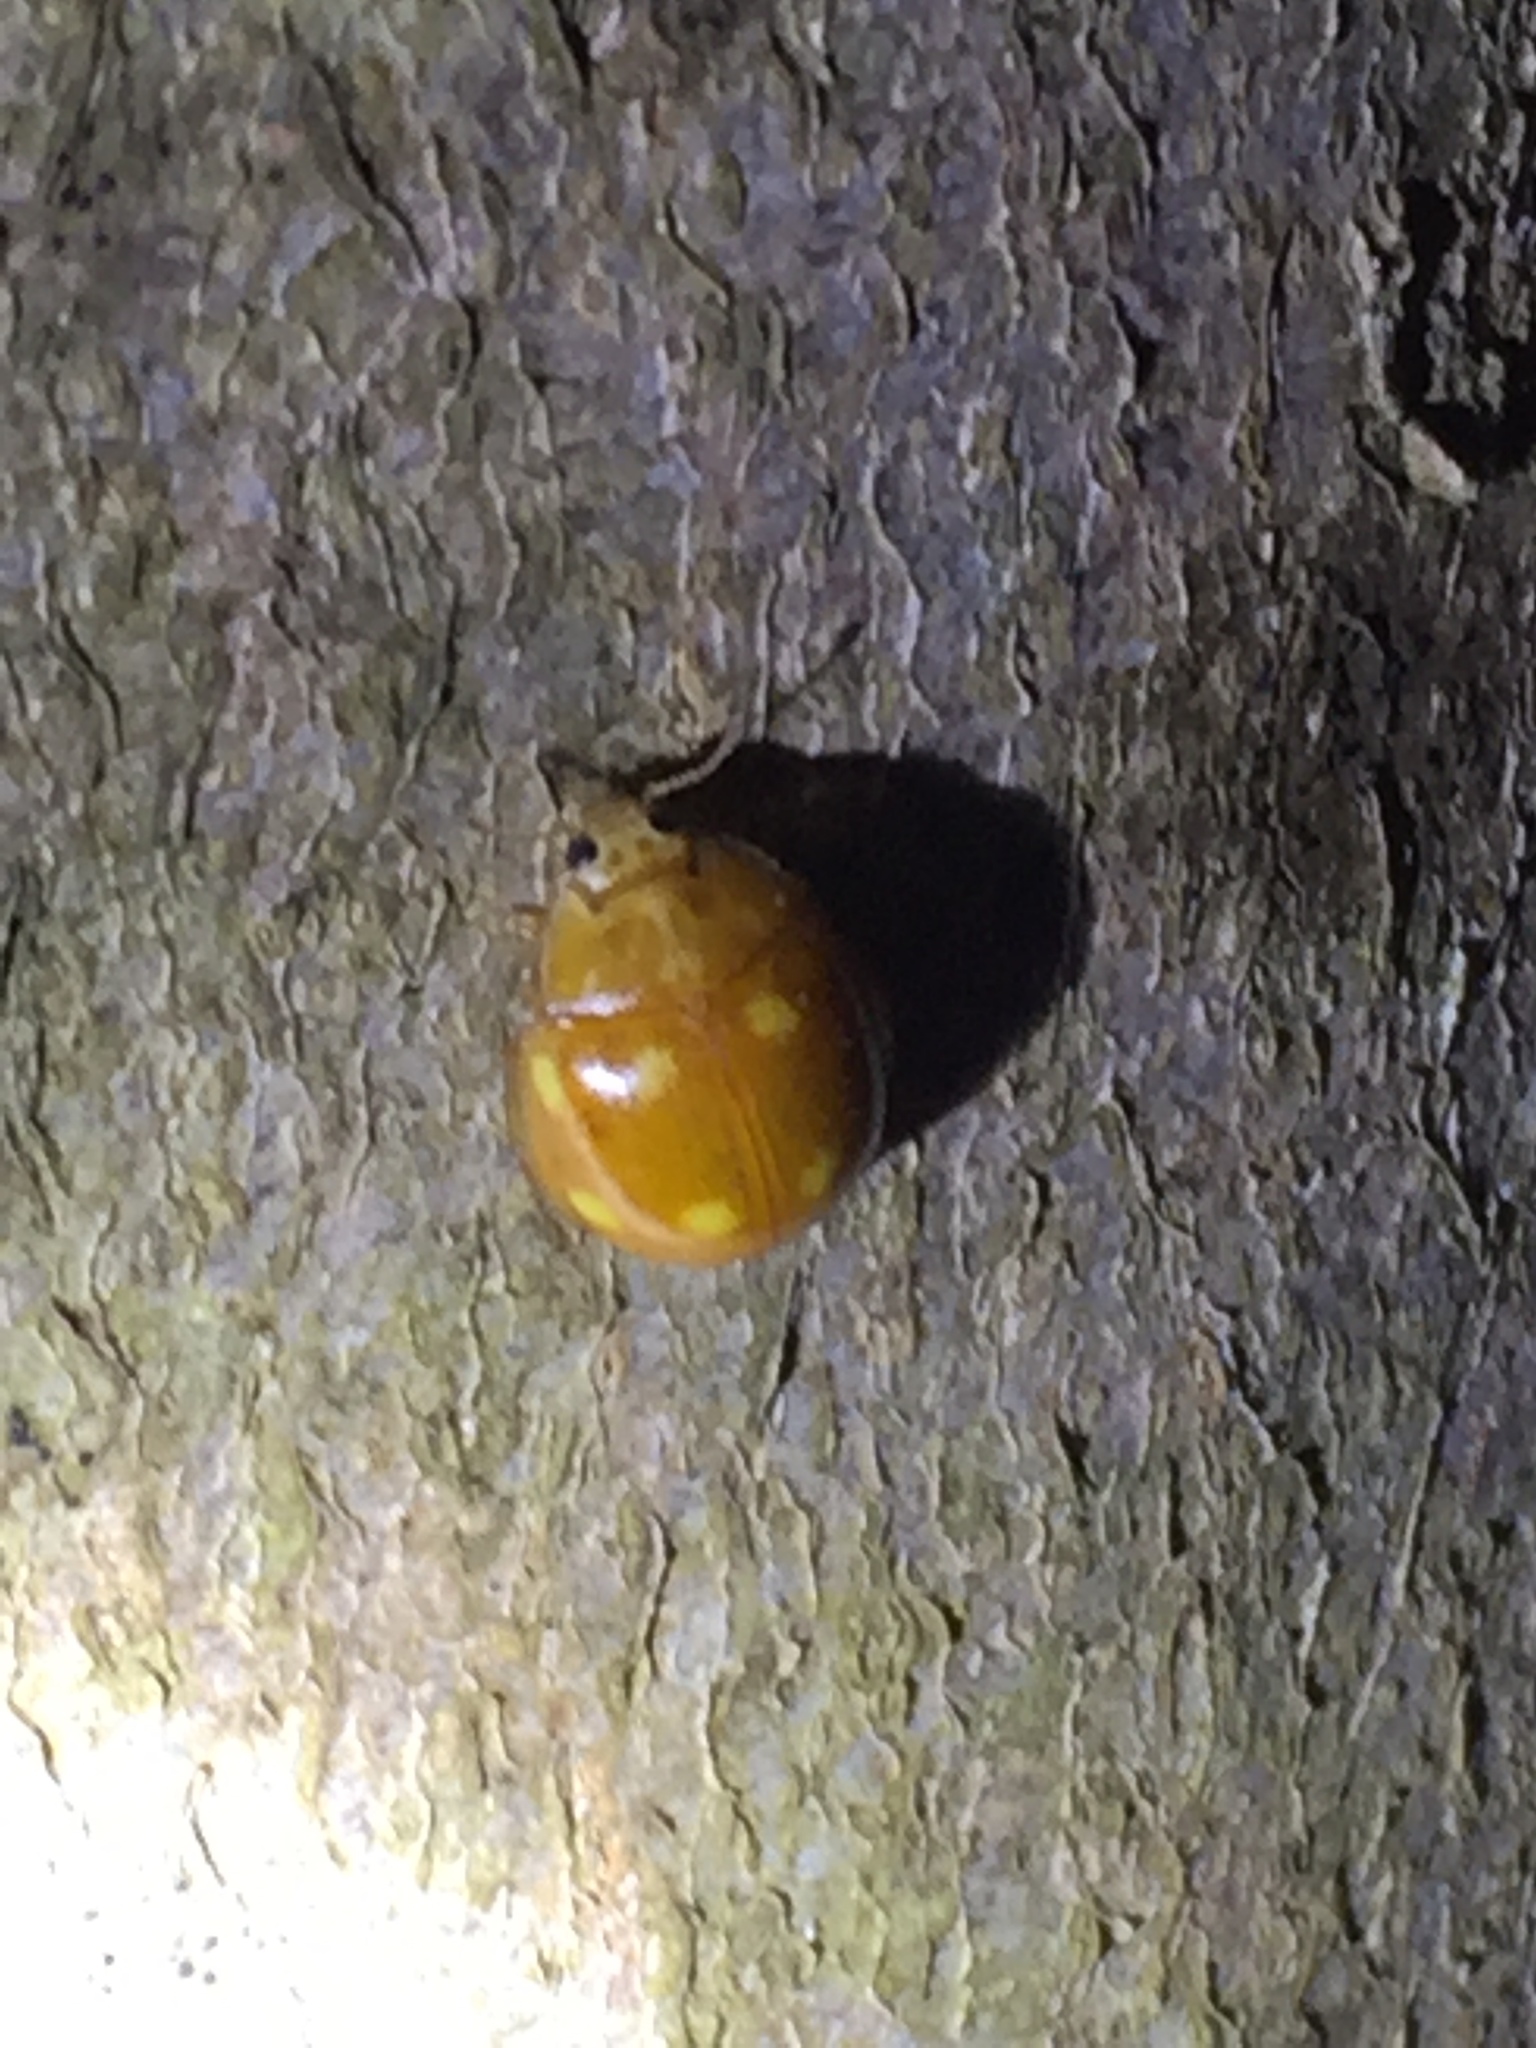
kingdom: Animalia
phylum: Arthropoda
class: Insecta
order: Coleoptera
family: Coccinellidae
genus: Calvia
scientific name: Calvia decemguttata
